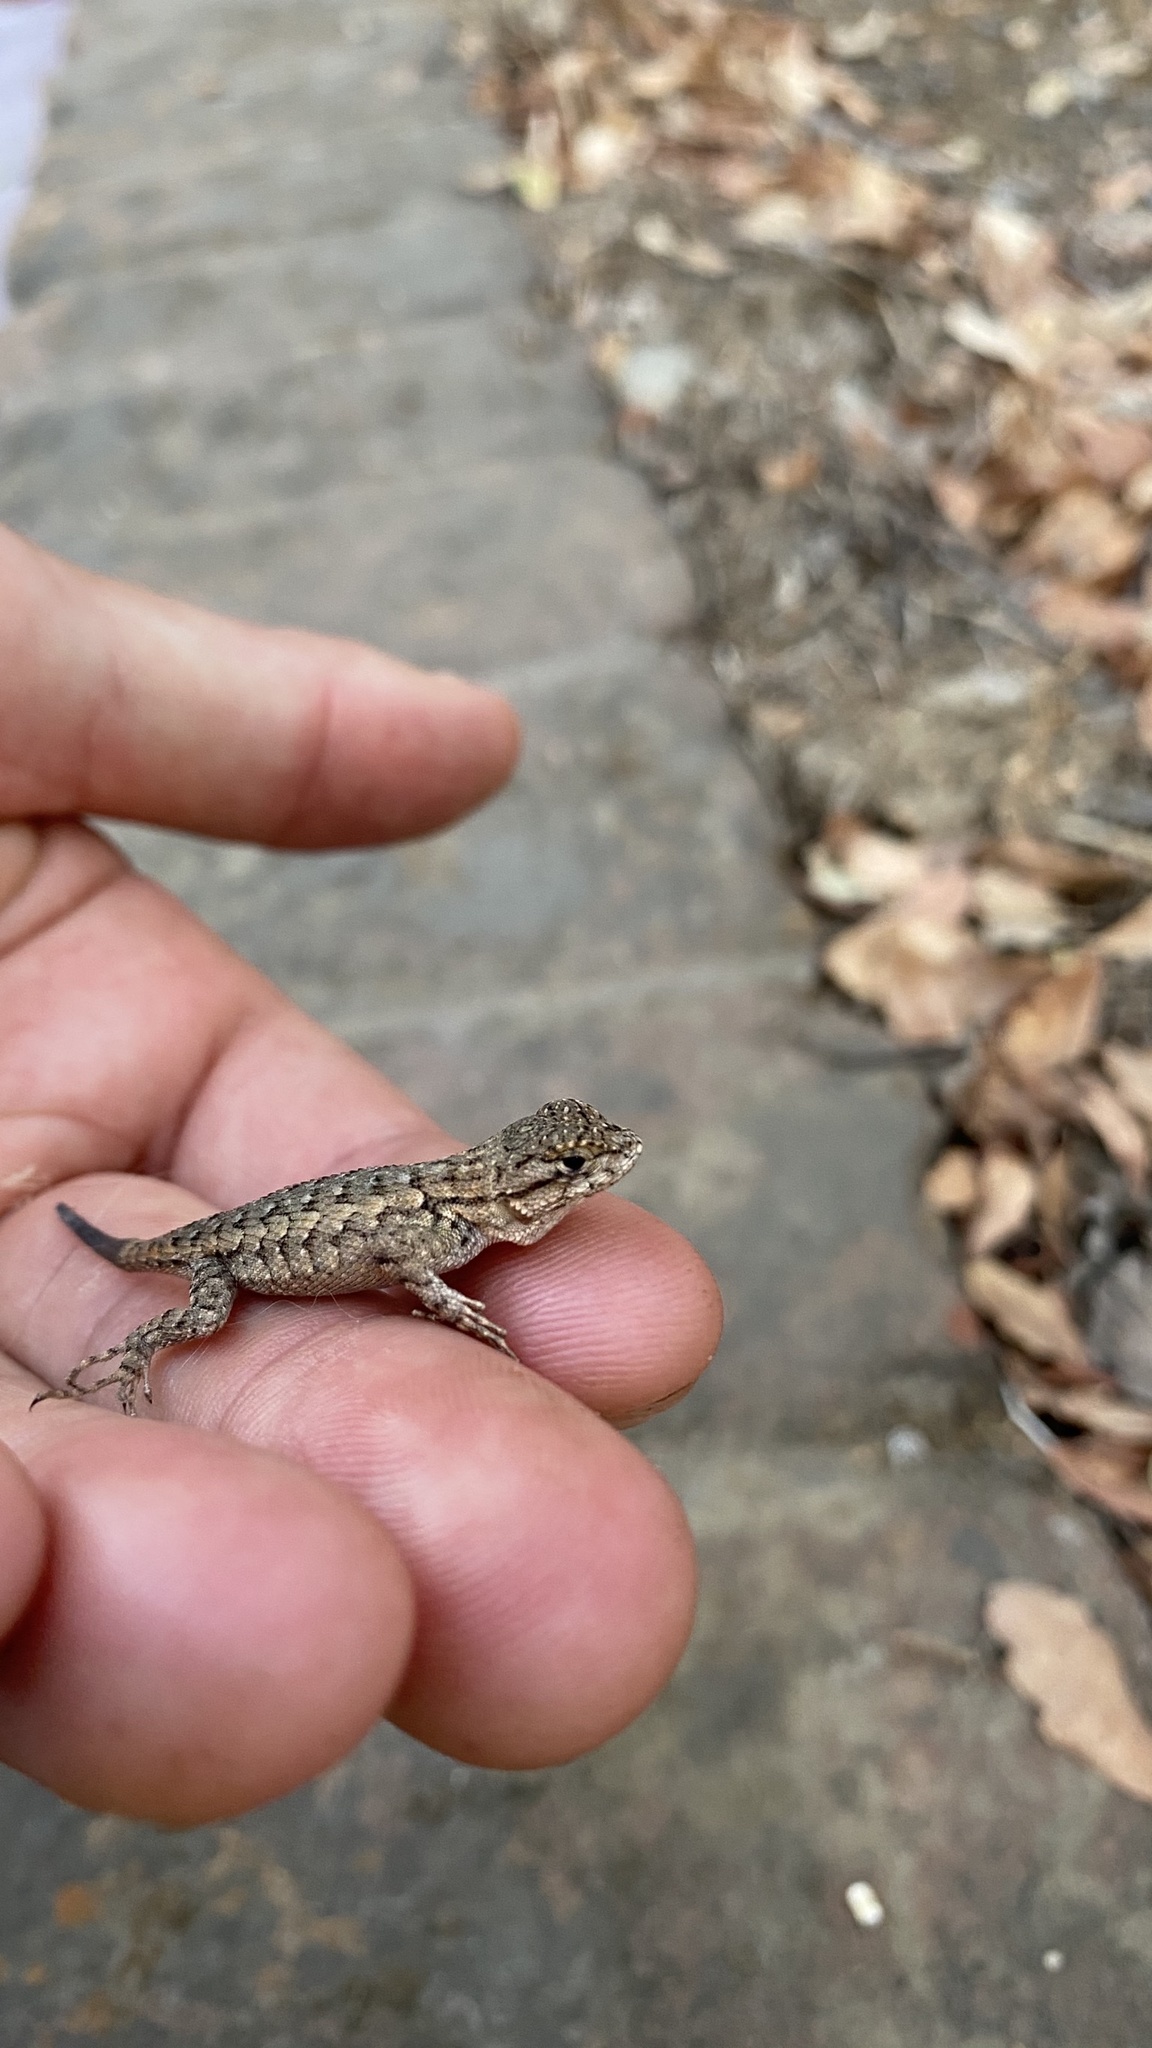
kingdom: Animalia
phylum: Chordata
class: Squamata
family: Phrynosomatidae
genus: Sceloporus
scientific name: Sceloporus occidentalis
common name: Western fence lizard
